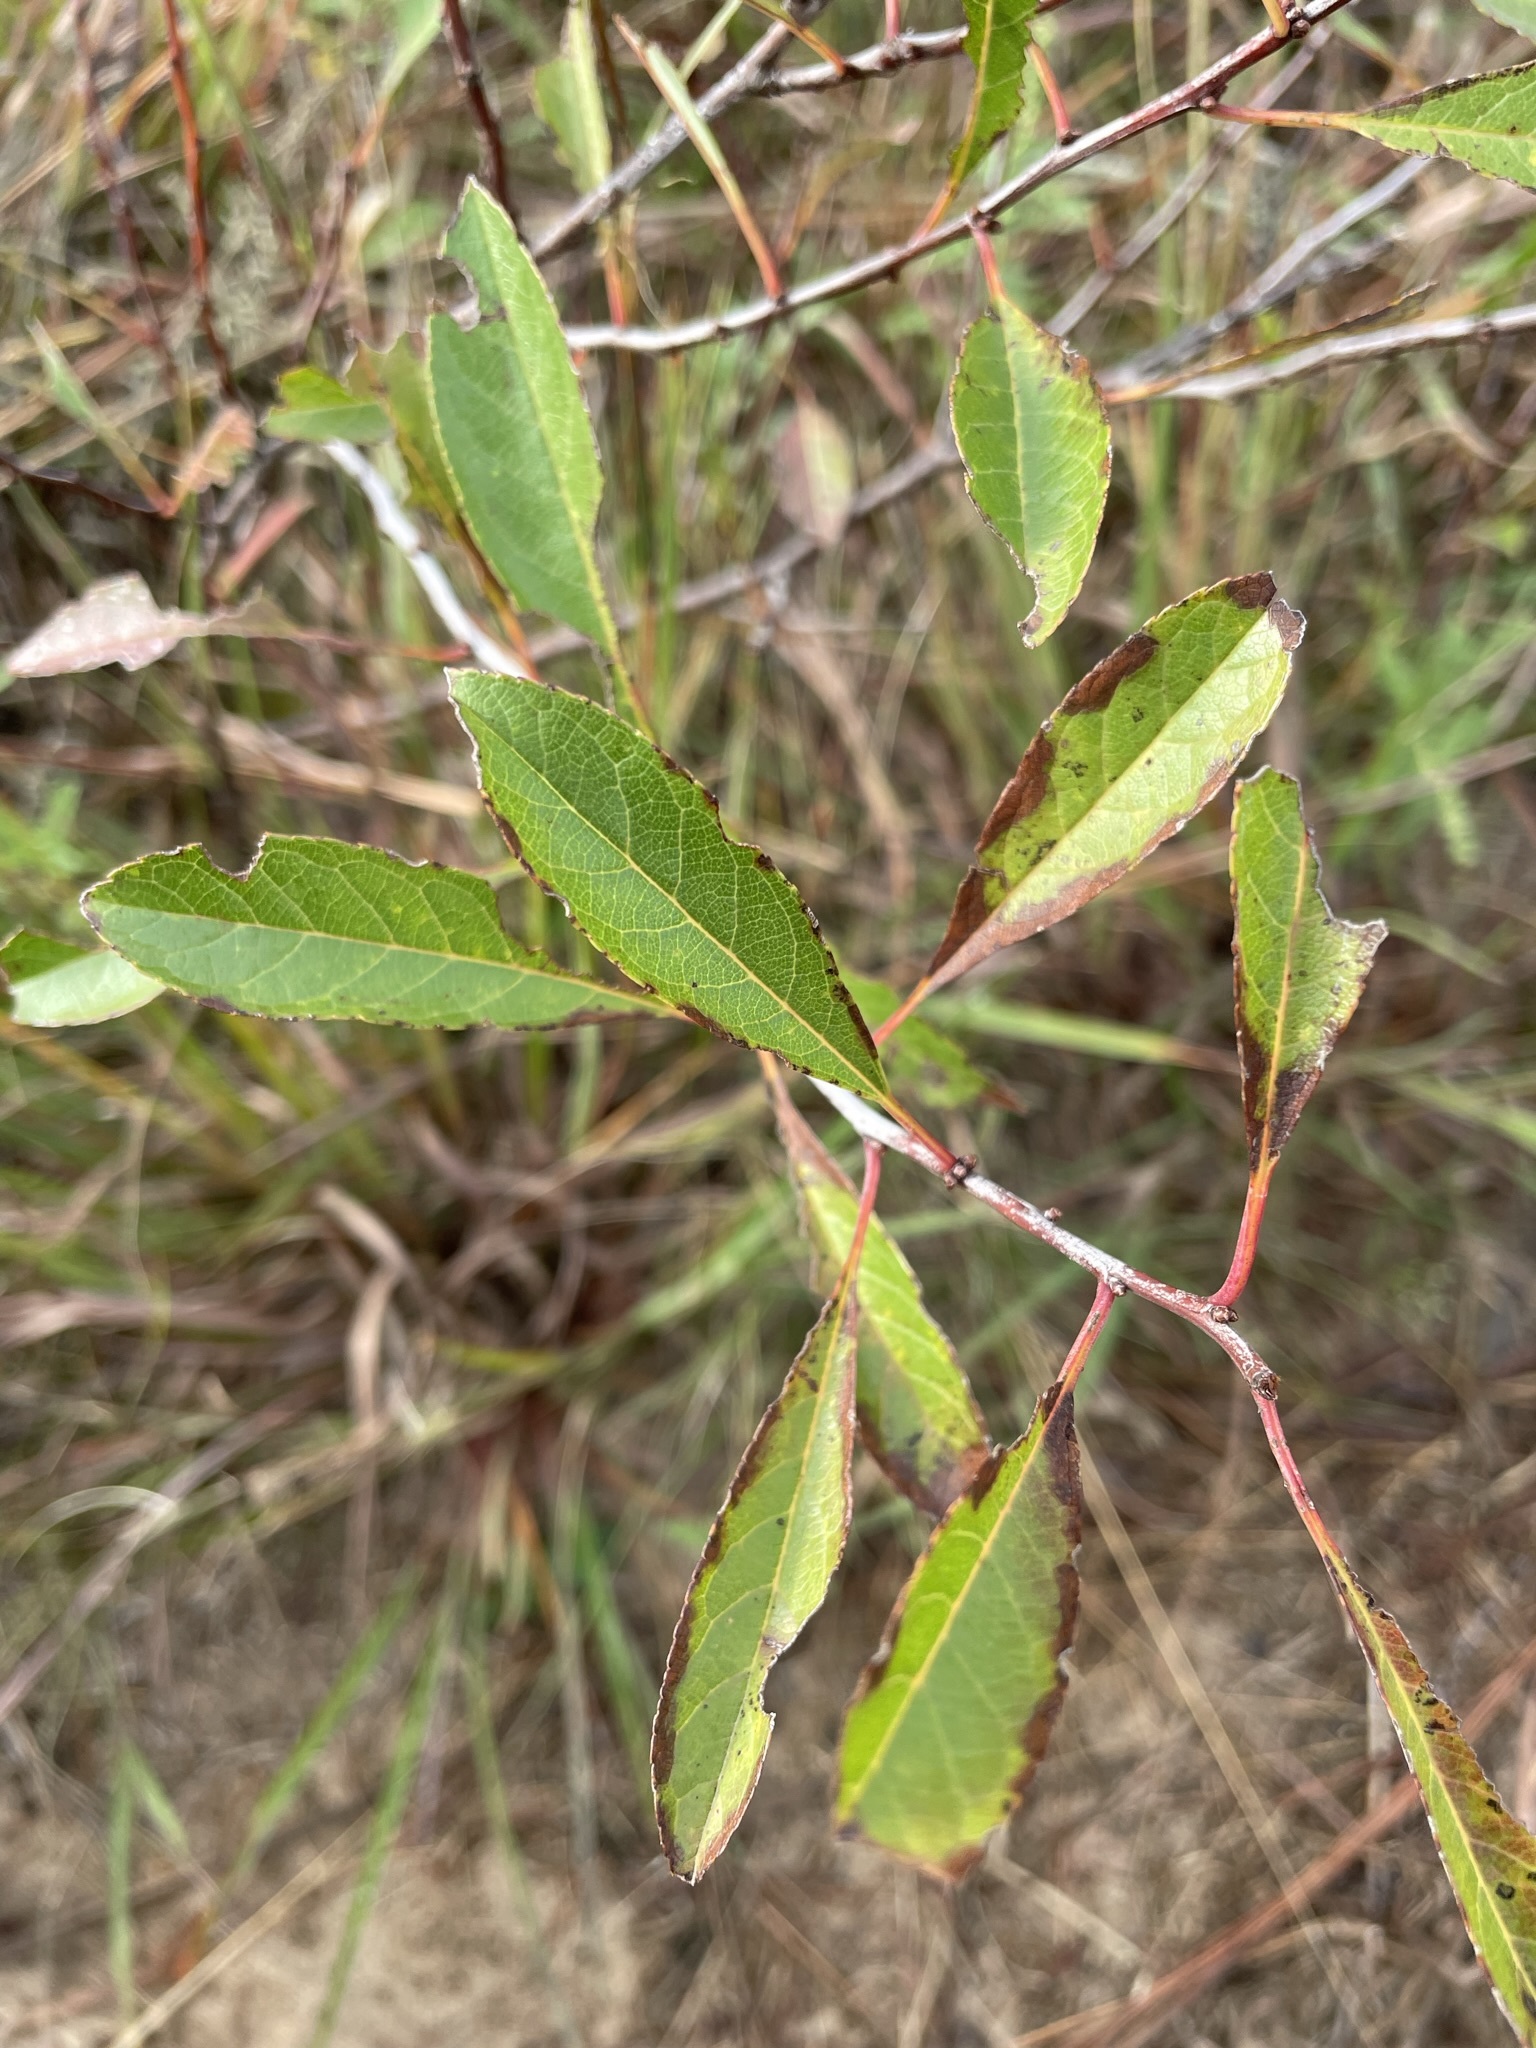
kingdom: Plantae
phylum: Tracheophyta
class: Magnoliopsida
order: Rosales
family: Rosaceae
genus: Prunus
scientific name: Prunus pumila
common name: Dwarf cherry
